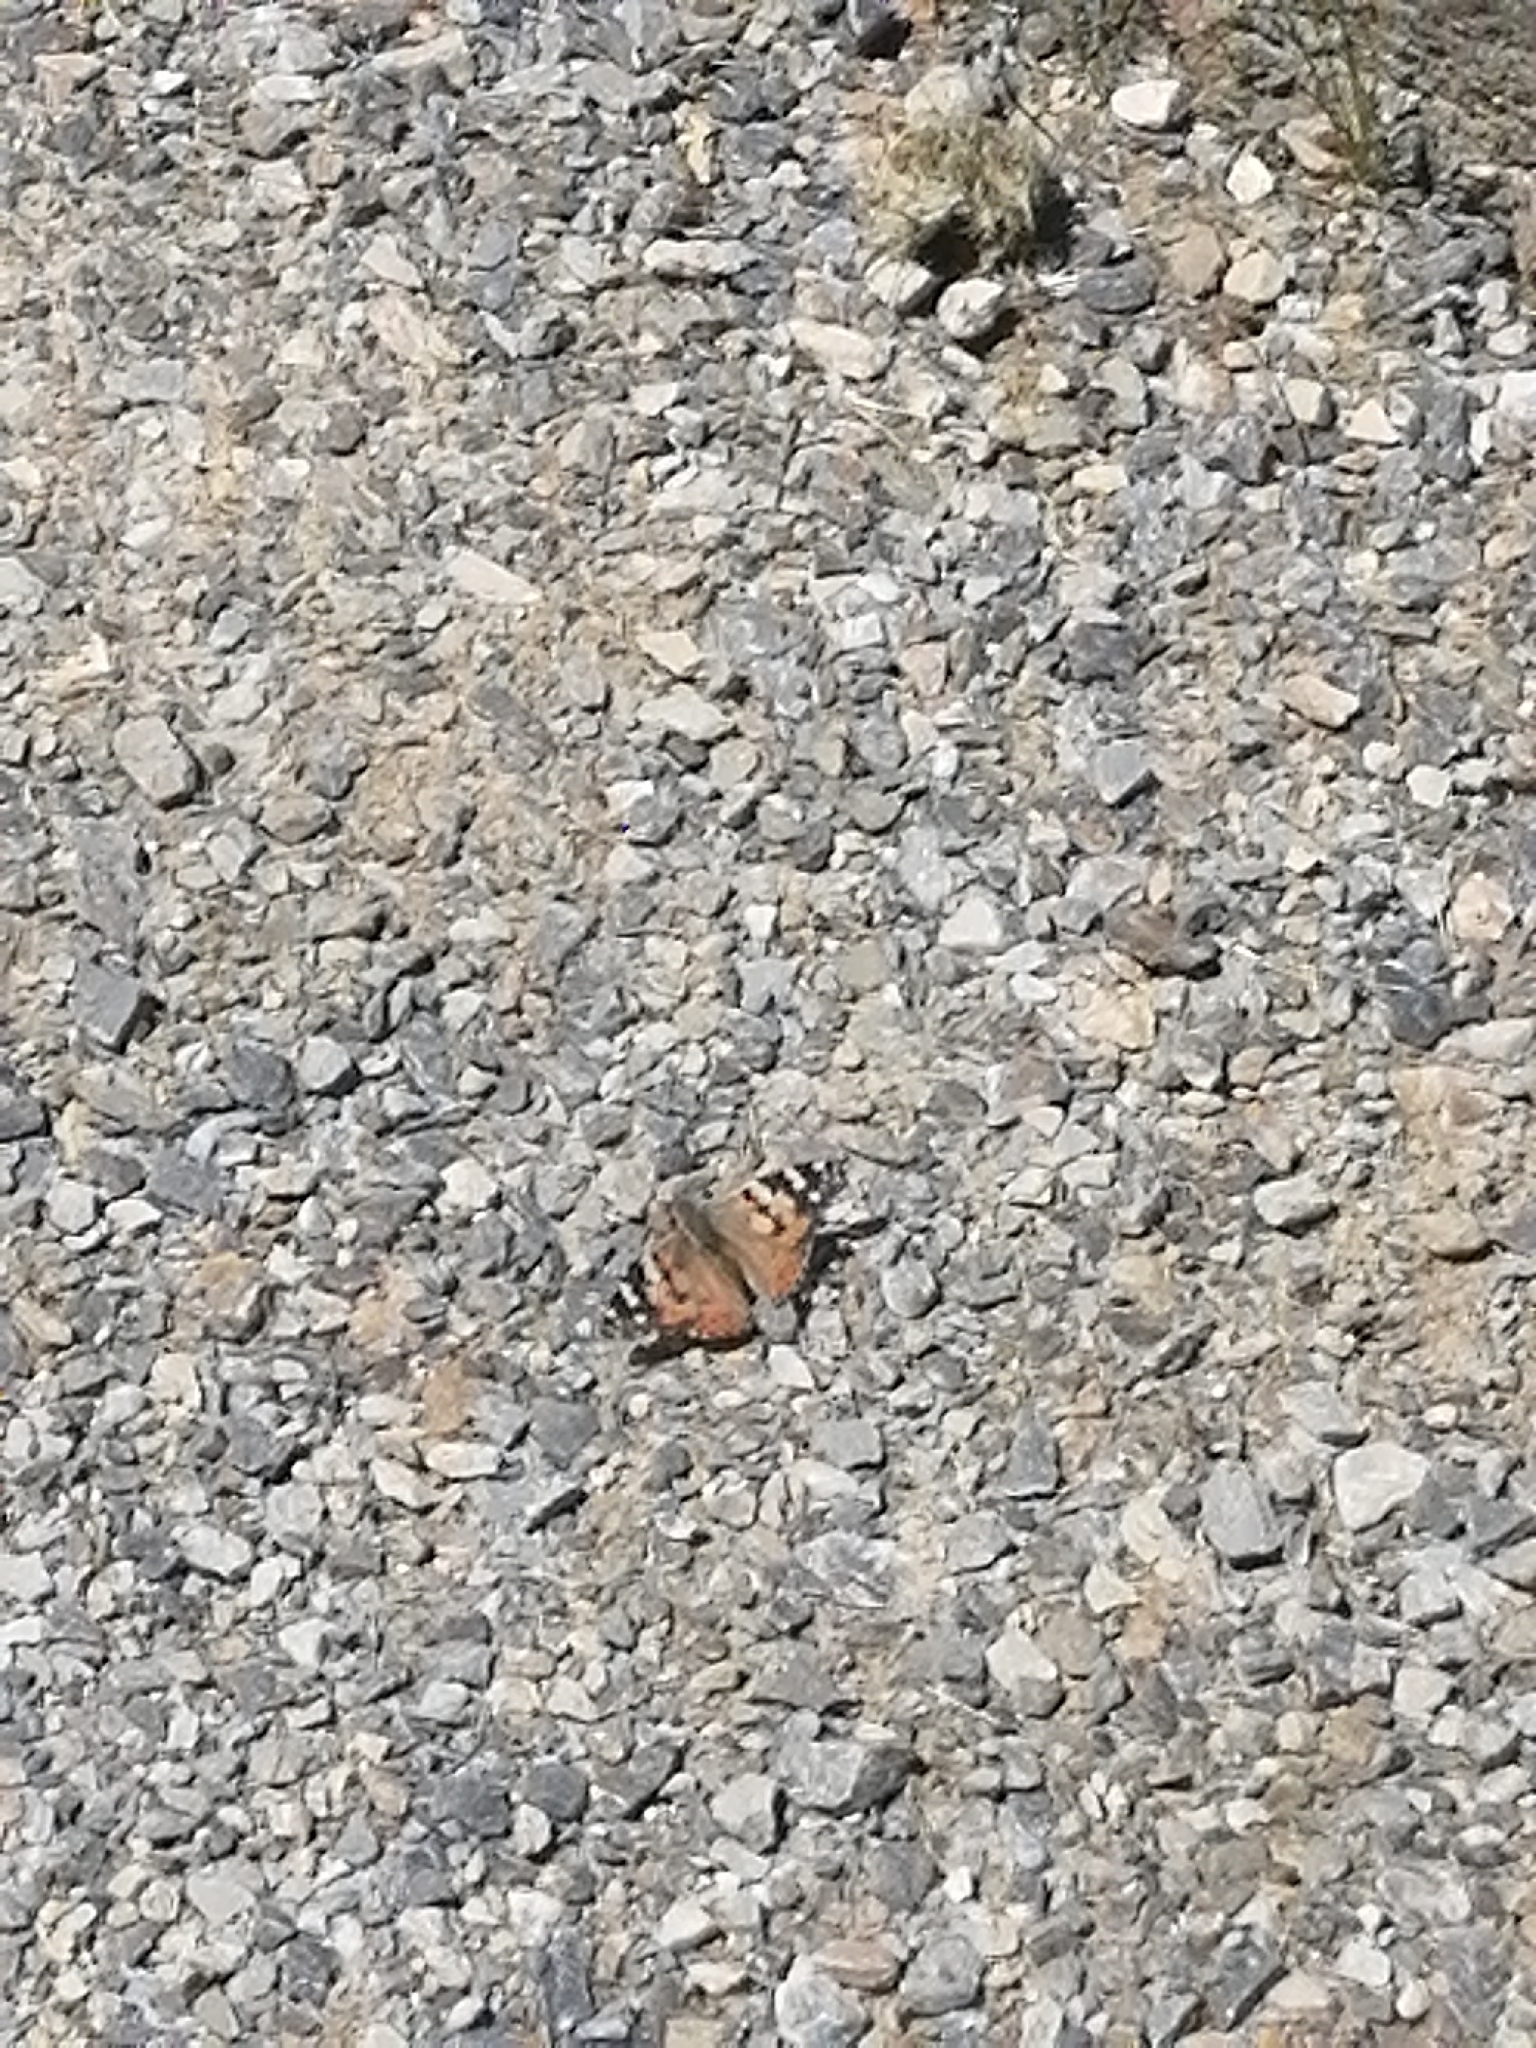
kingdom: Animalia
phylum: Arthropoda
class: Insecta
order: Lepidoptera
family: Nymphalidae
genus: Vanessa
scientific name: Vanessa cardui
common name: Painted lady
